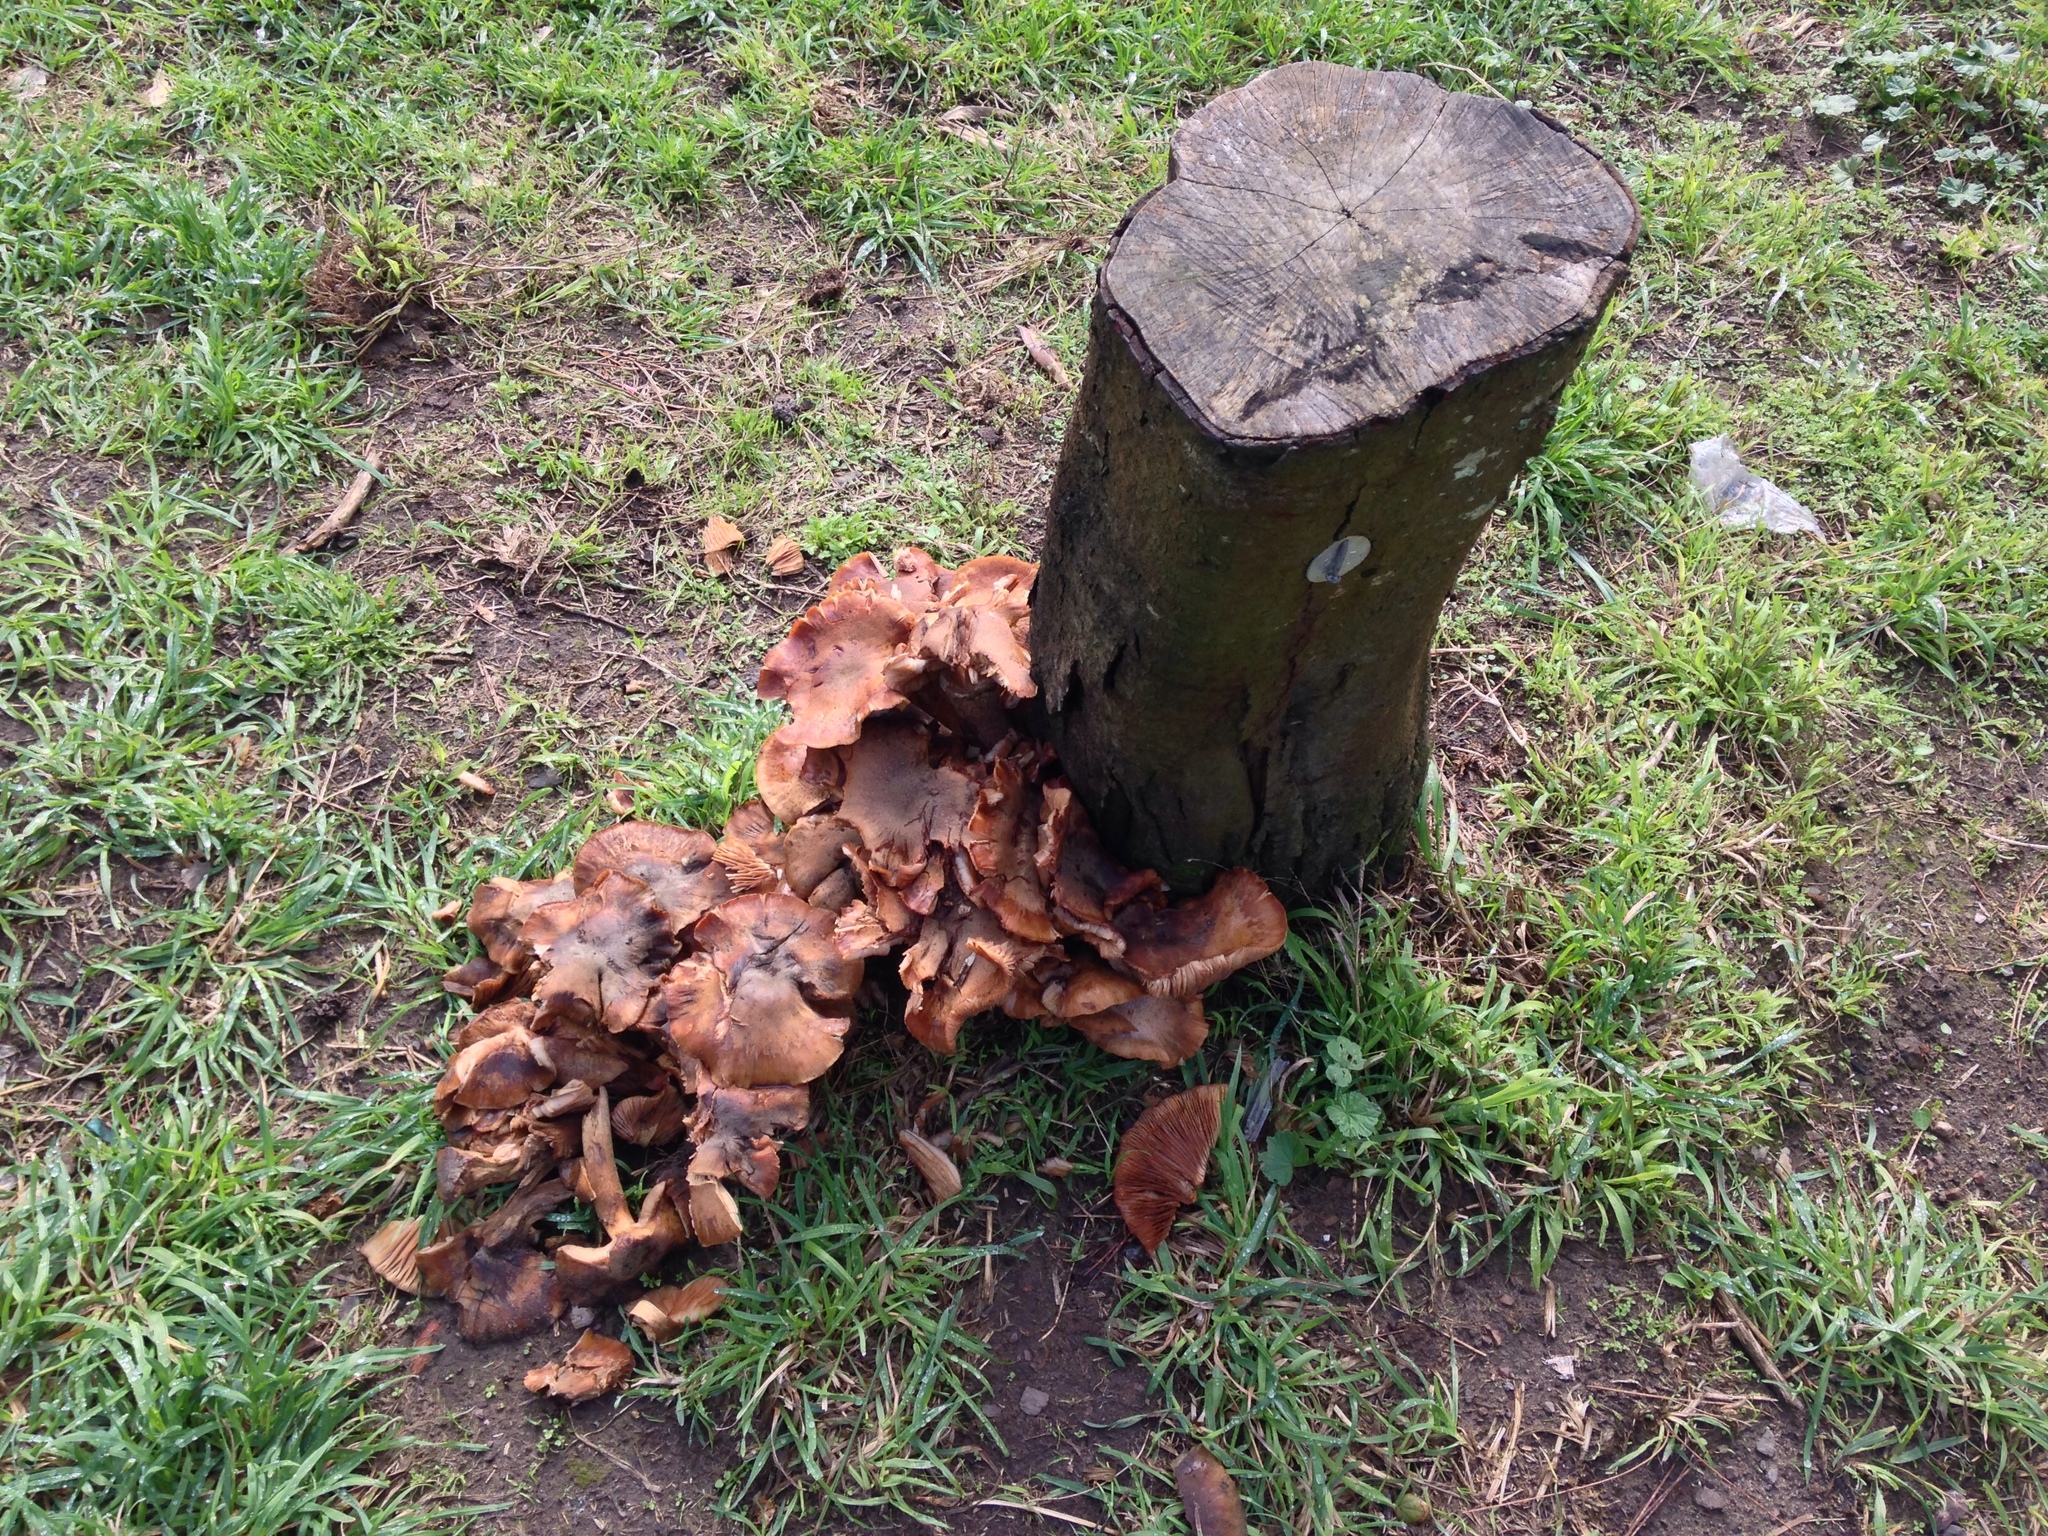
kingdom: Fungi
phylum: Basidiomycota
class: Agaricomycetes
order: Agaricales
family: Physalacriaceae
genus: Armillaria
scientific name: Armillaria mellea
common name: Honey fungus
